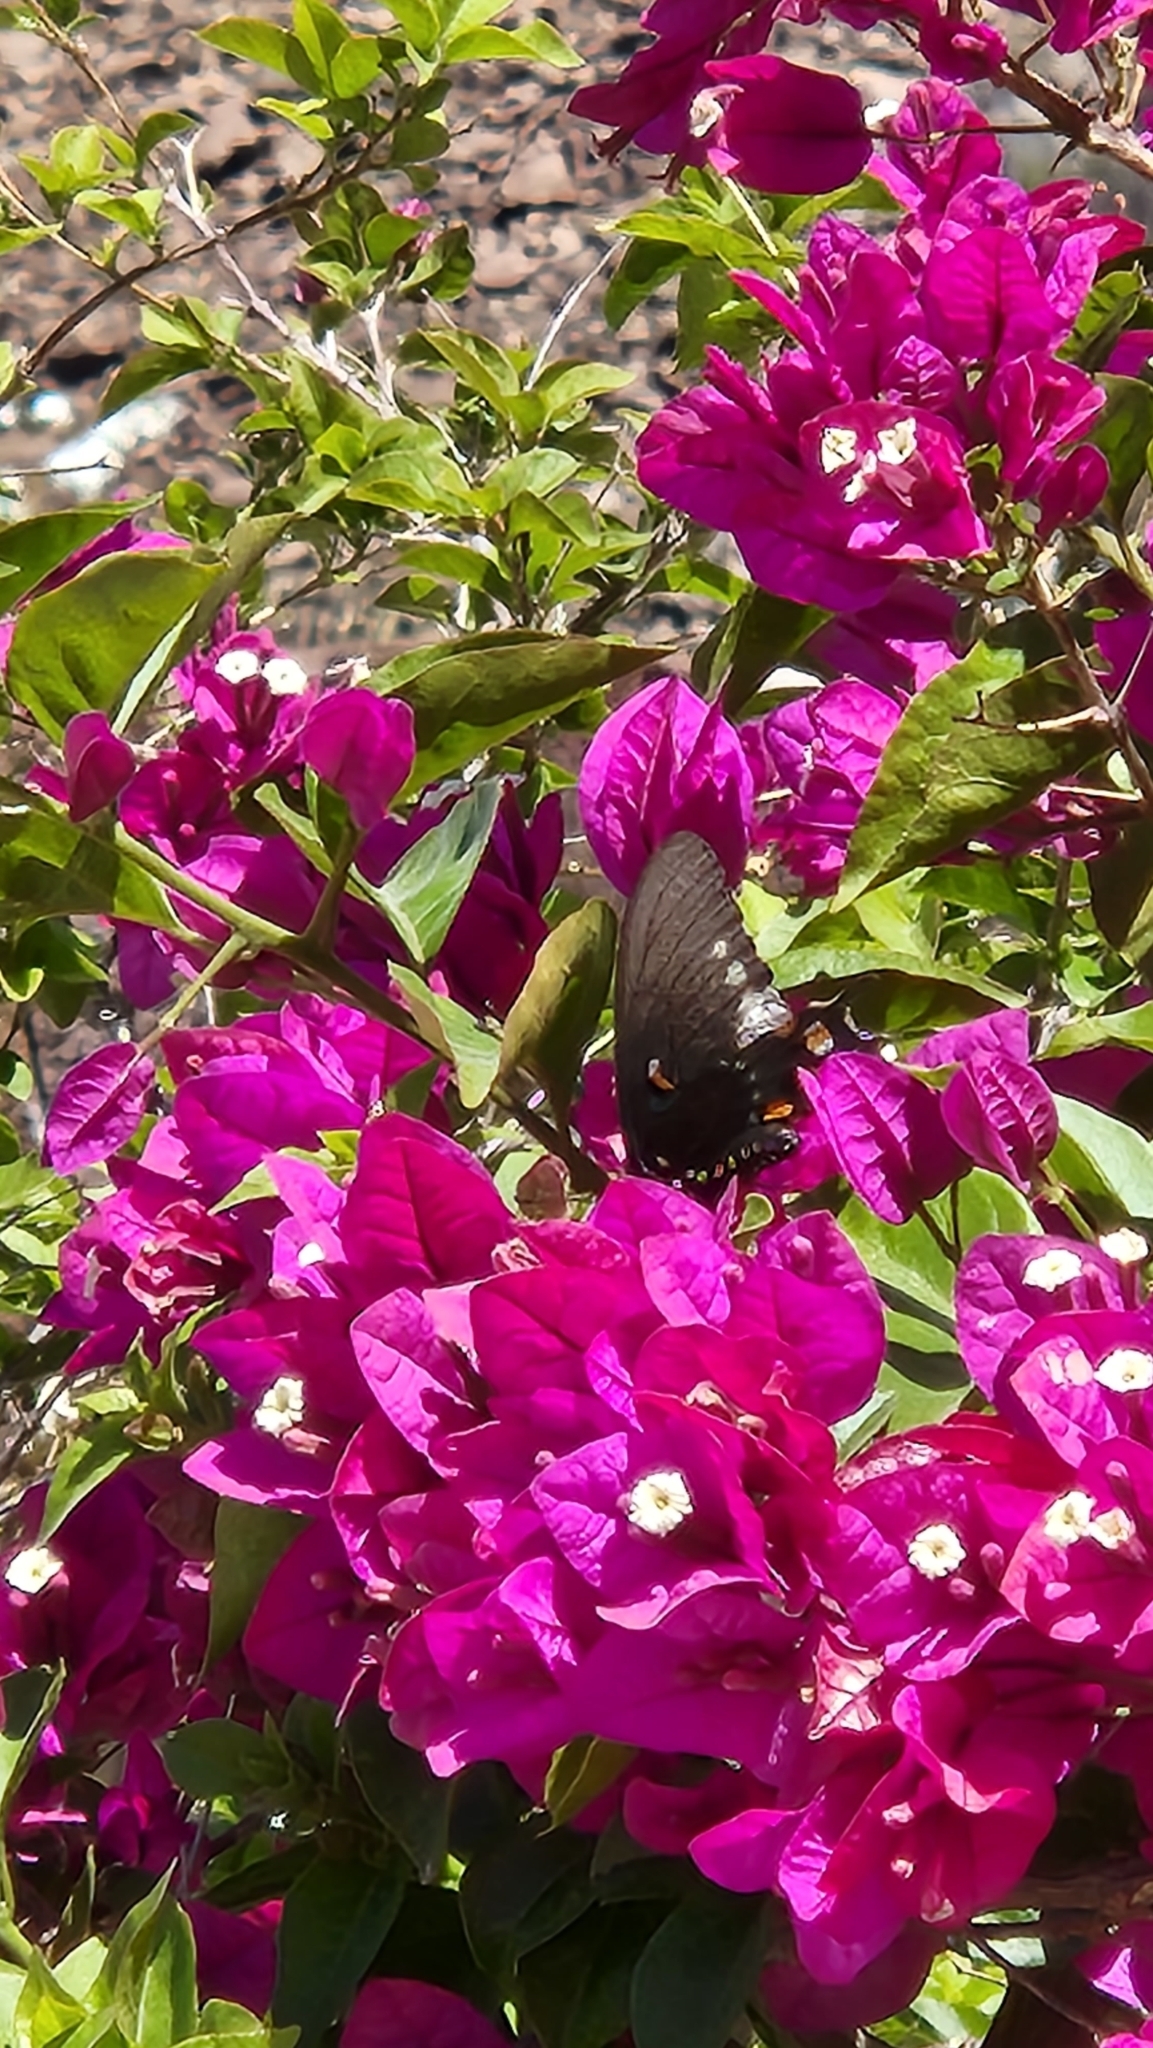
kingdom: Animalia
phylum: Arthropoda
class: Insecta
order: Lepidoptera
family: Papilionidae
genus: Battus
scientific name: Battus philenor
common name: Pipevine swallowtail
